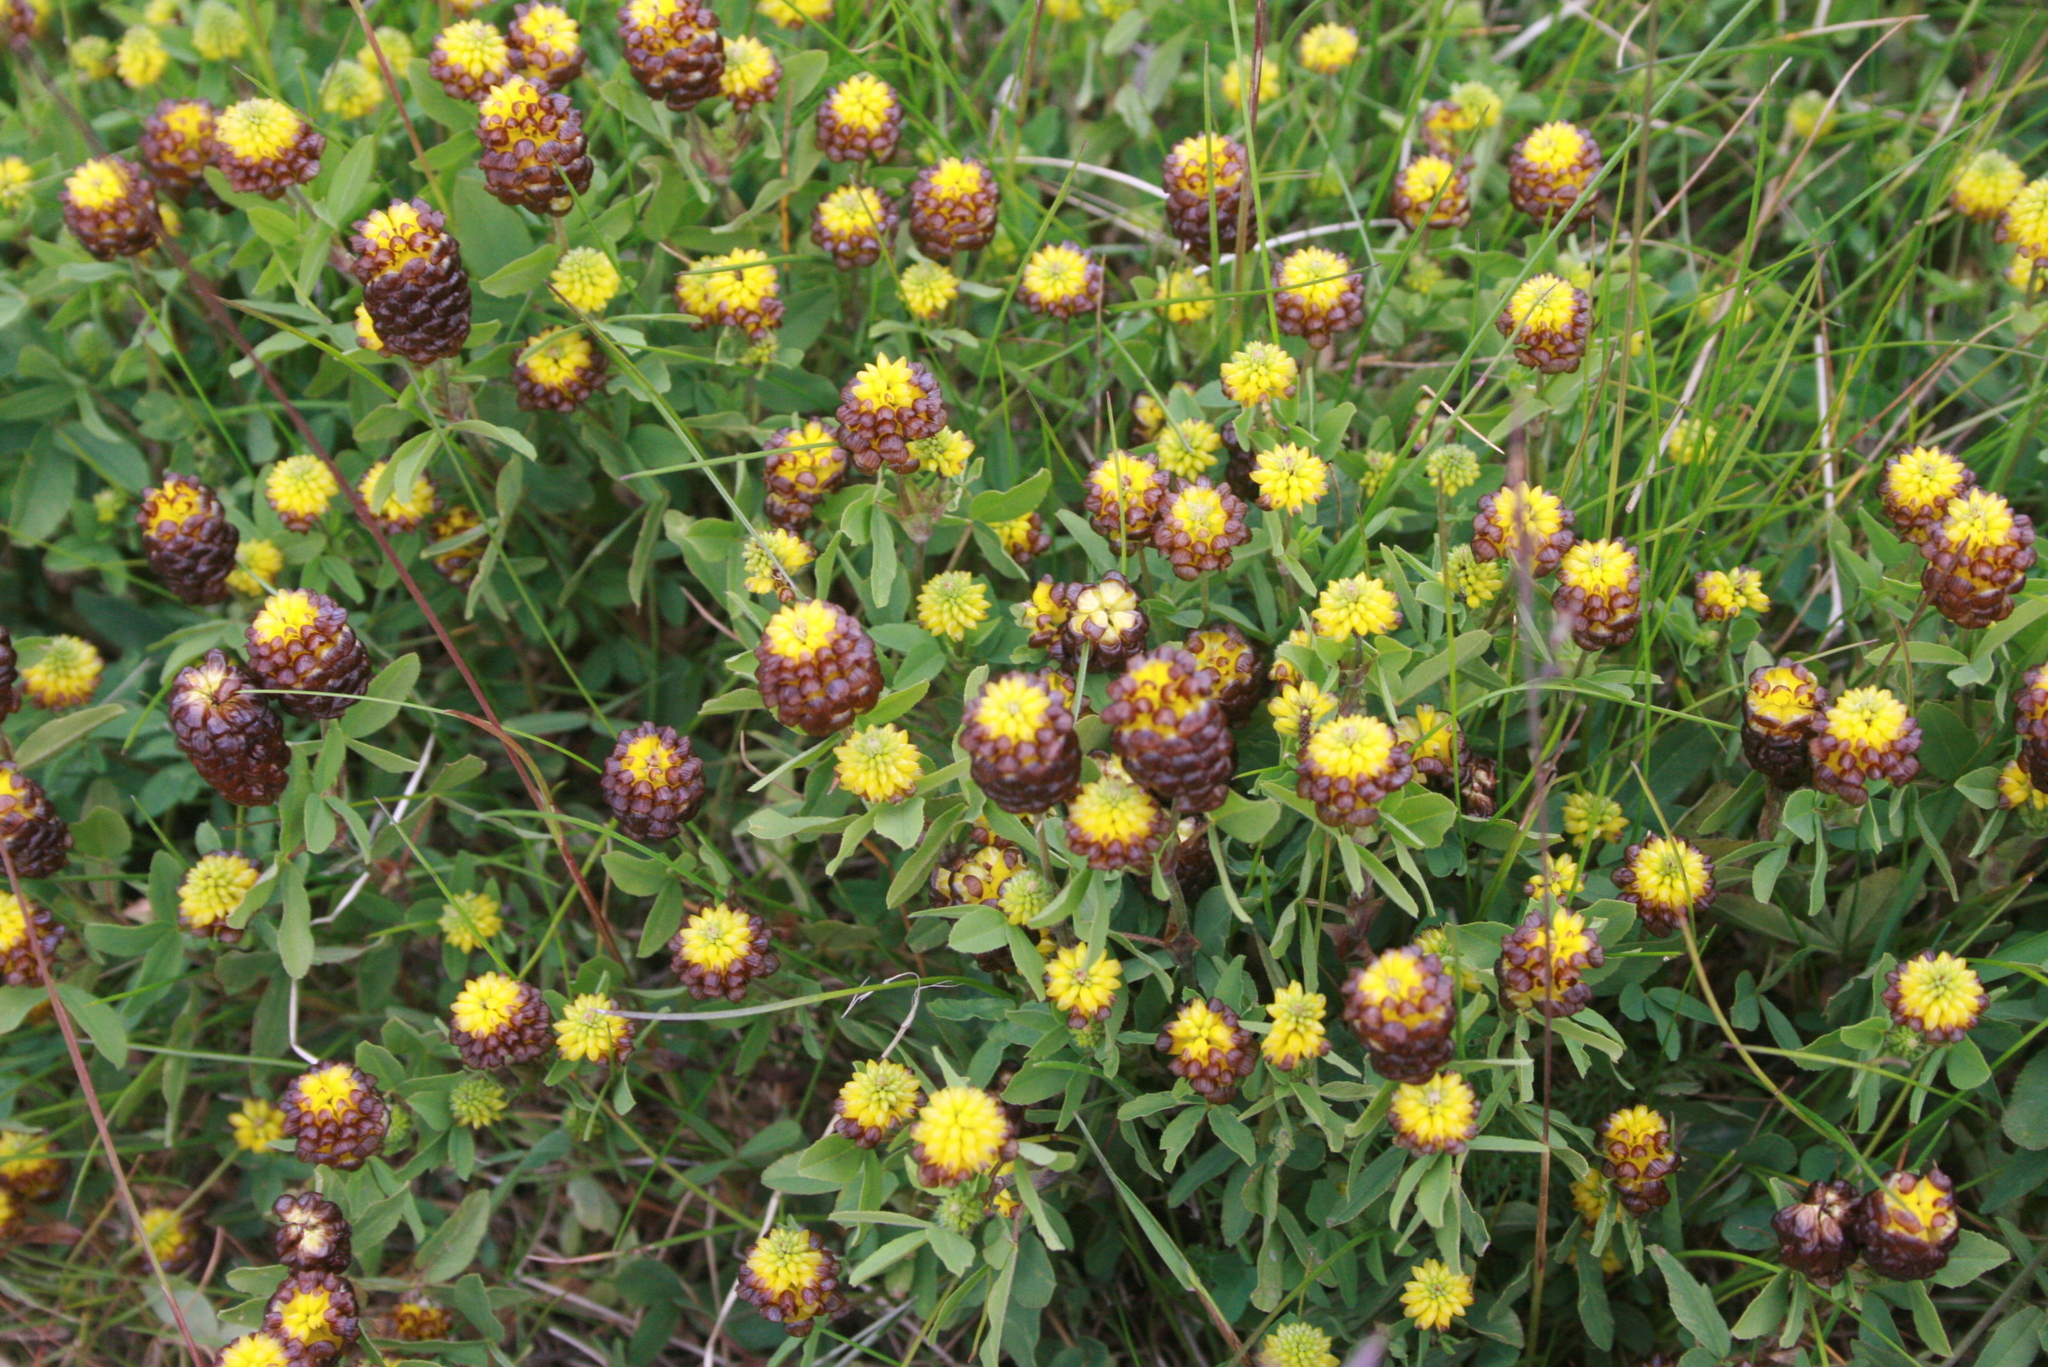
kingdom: Plantae
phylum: Tracheophyta
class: Magnoliopsida
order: Fabales
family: Fabaceae
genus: Trifolium
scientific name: Trifolium spadiceum
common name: Brown moor clover
